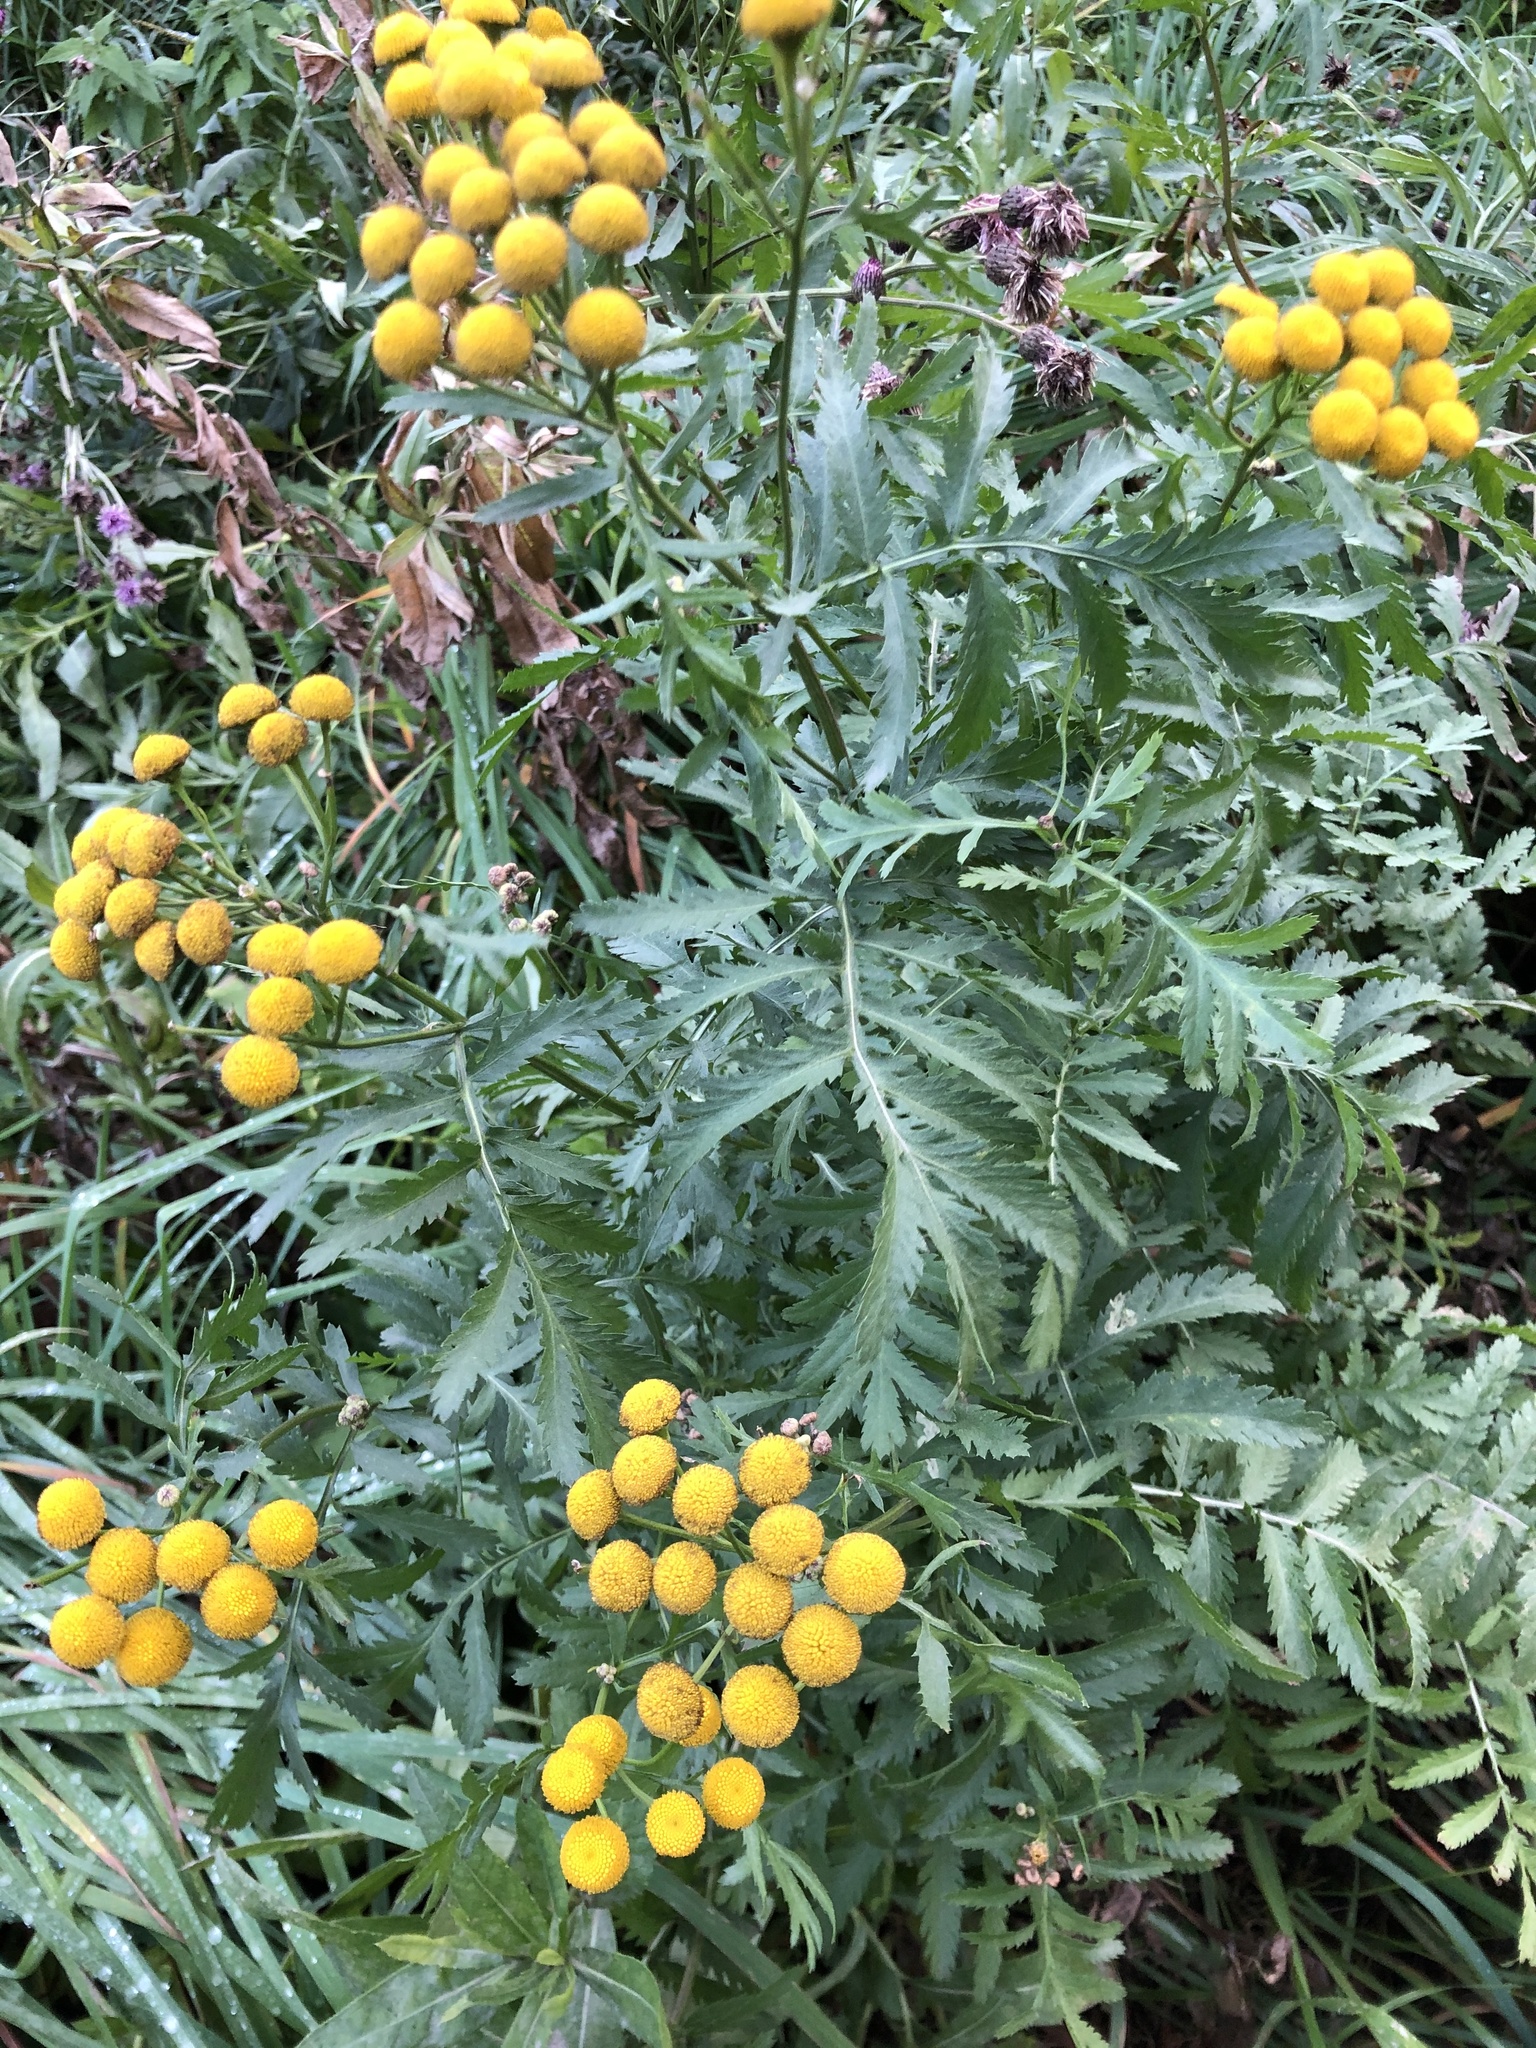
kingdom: Plantae
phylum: Tracheophyta
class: Magnoliopsida
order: Asterales
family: Asteraceae
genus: Tanacetum
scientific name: Tanacetum vulgare
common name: Common tansy
